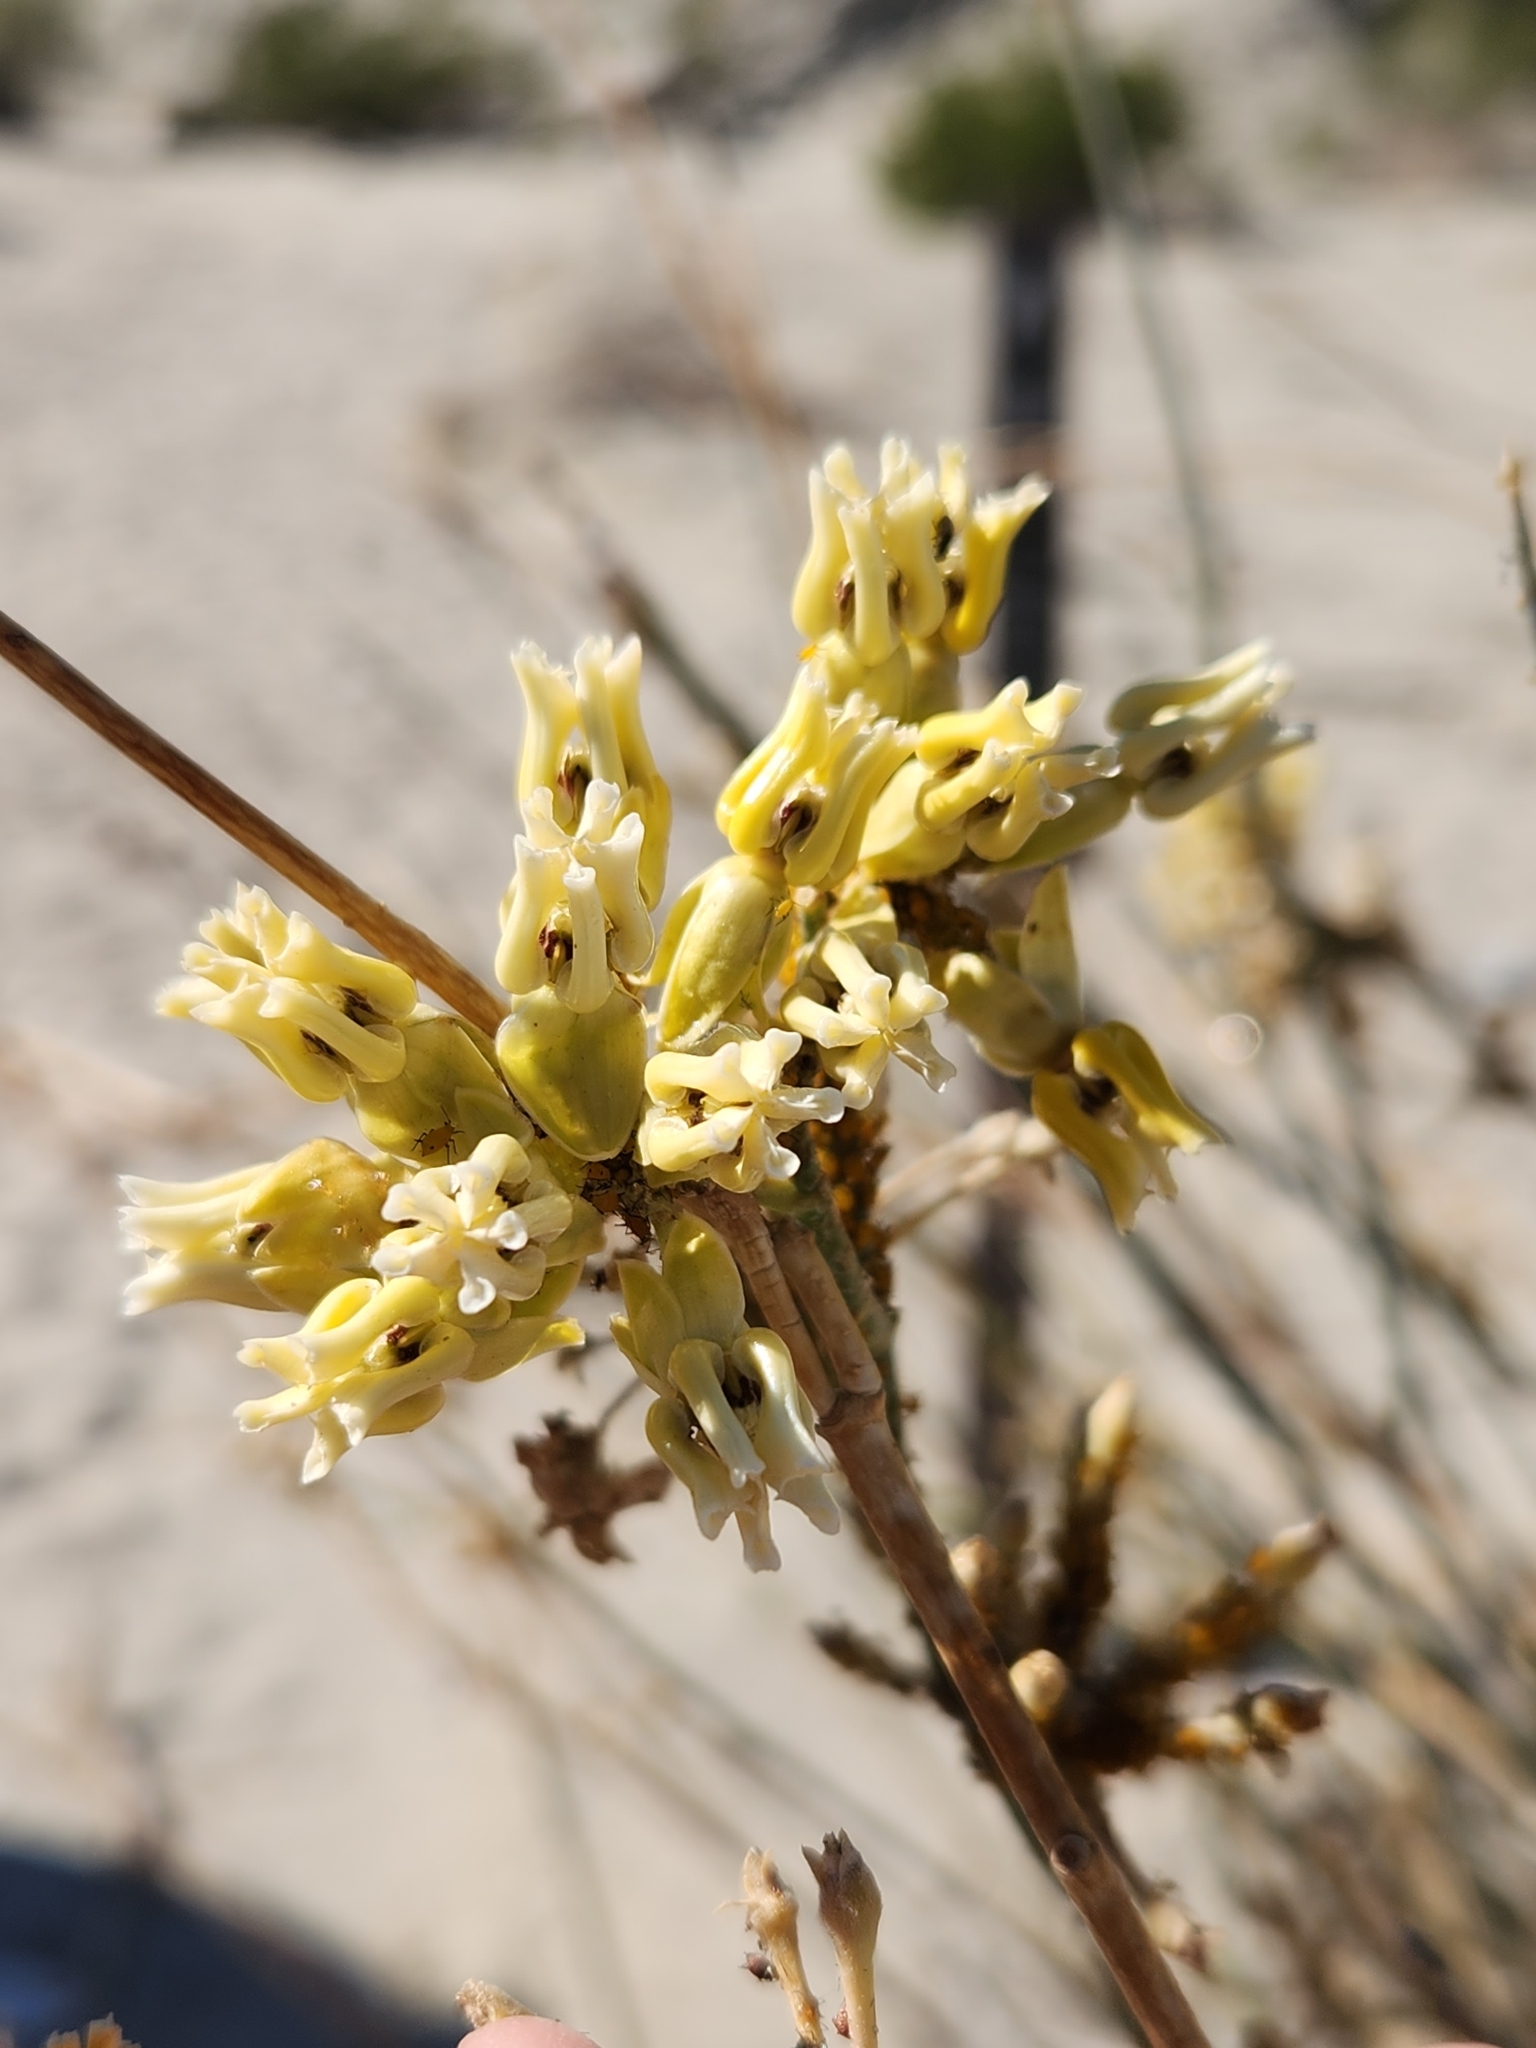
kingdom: Plantae
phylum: Tracheophyta
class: Magnoliopsida
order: Gentianales
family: Apocynaceae
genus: Asclepias
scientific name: Asclepias subulata
